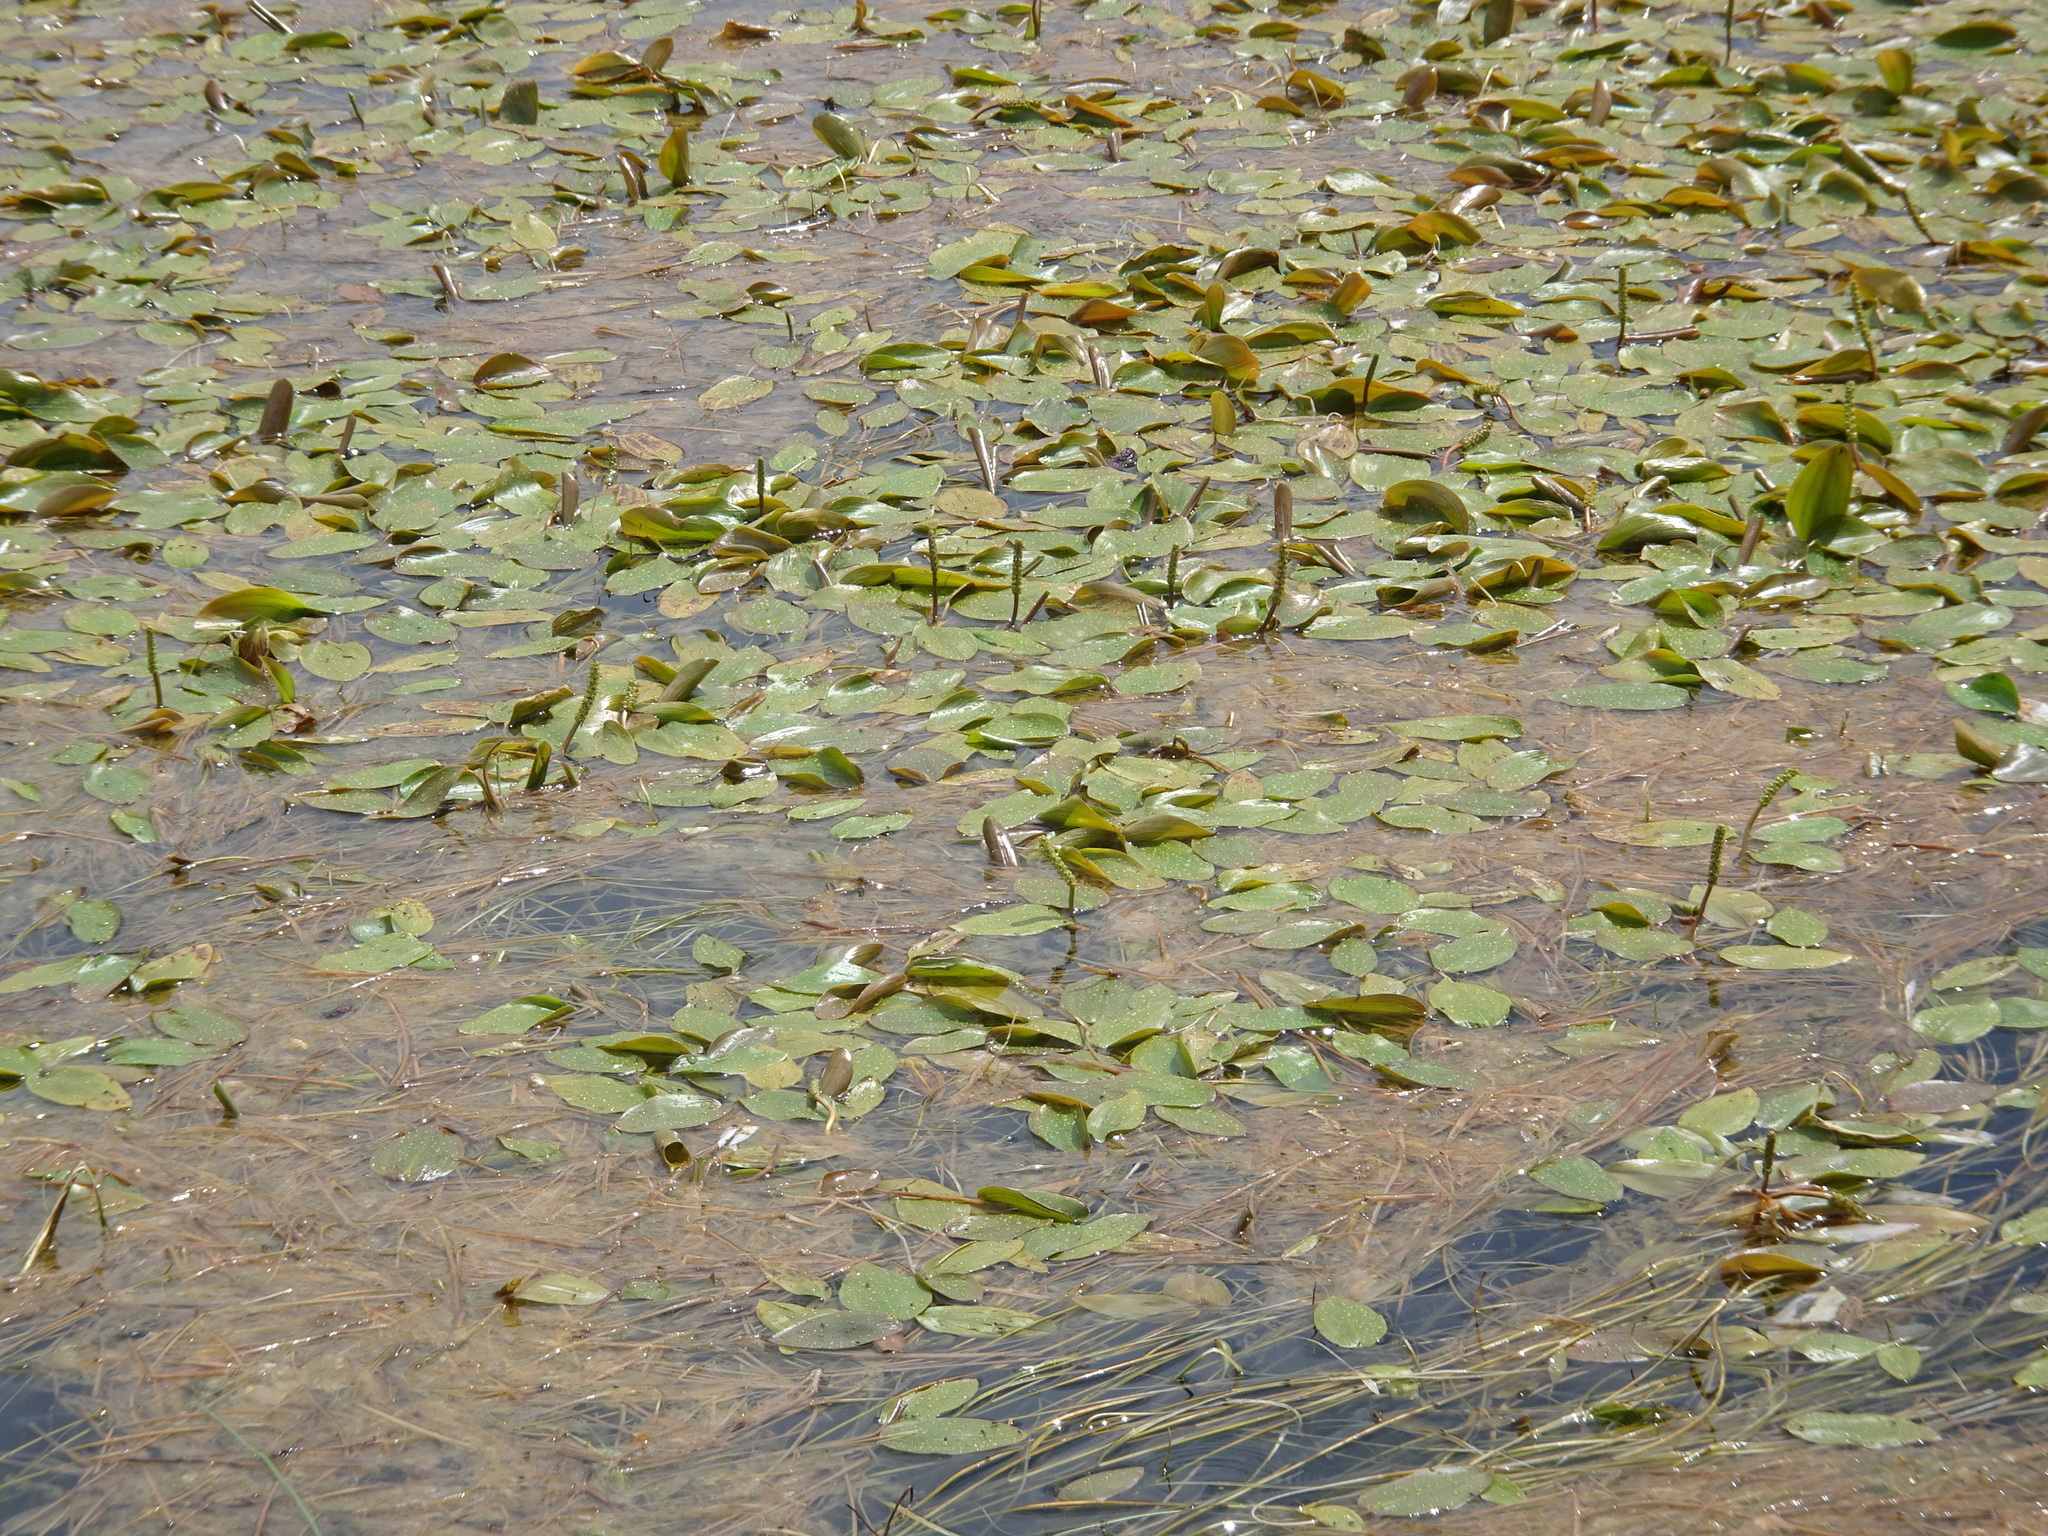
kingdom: Plantae
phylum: Tracheophyta
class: Liliopsida
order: Alismatales
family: Potamogetonaceae
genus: Potamogeton
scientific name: Potamogeton natans
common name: Broad-leaved pondweed
